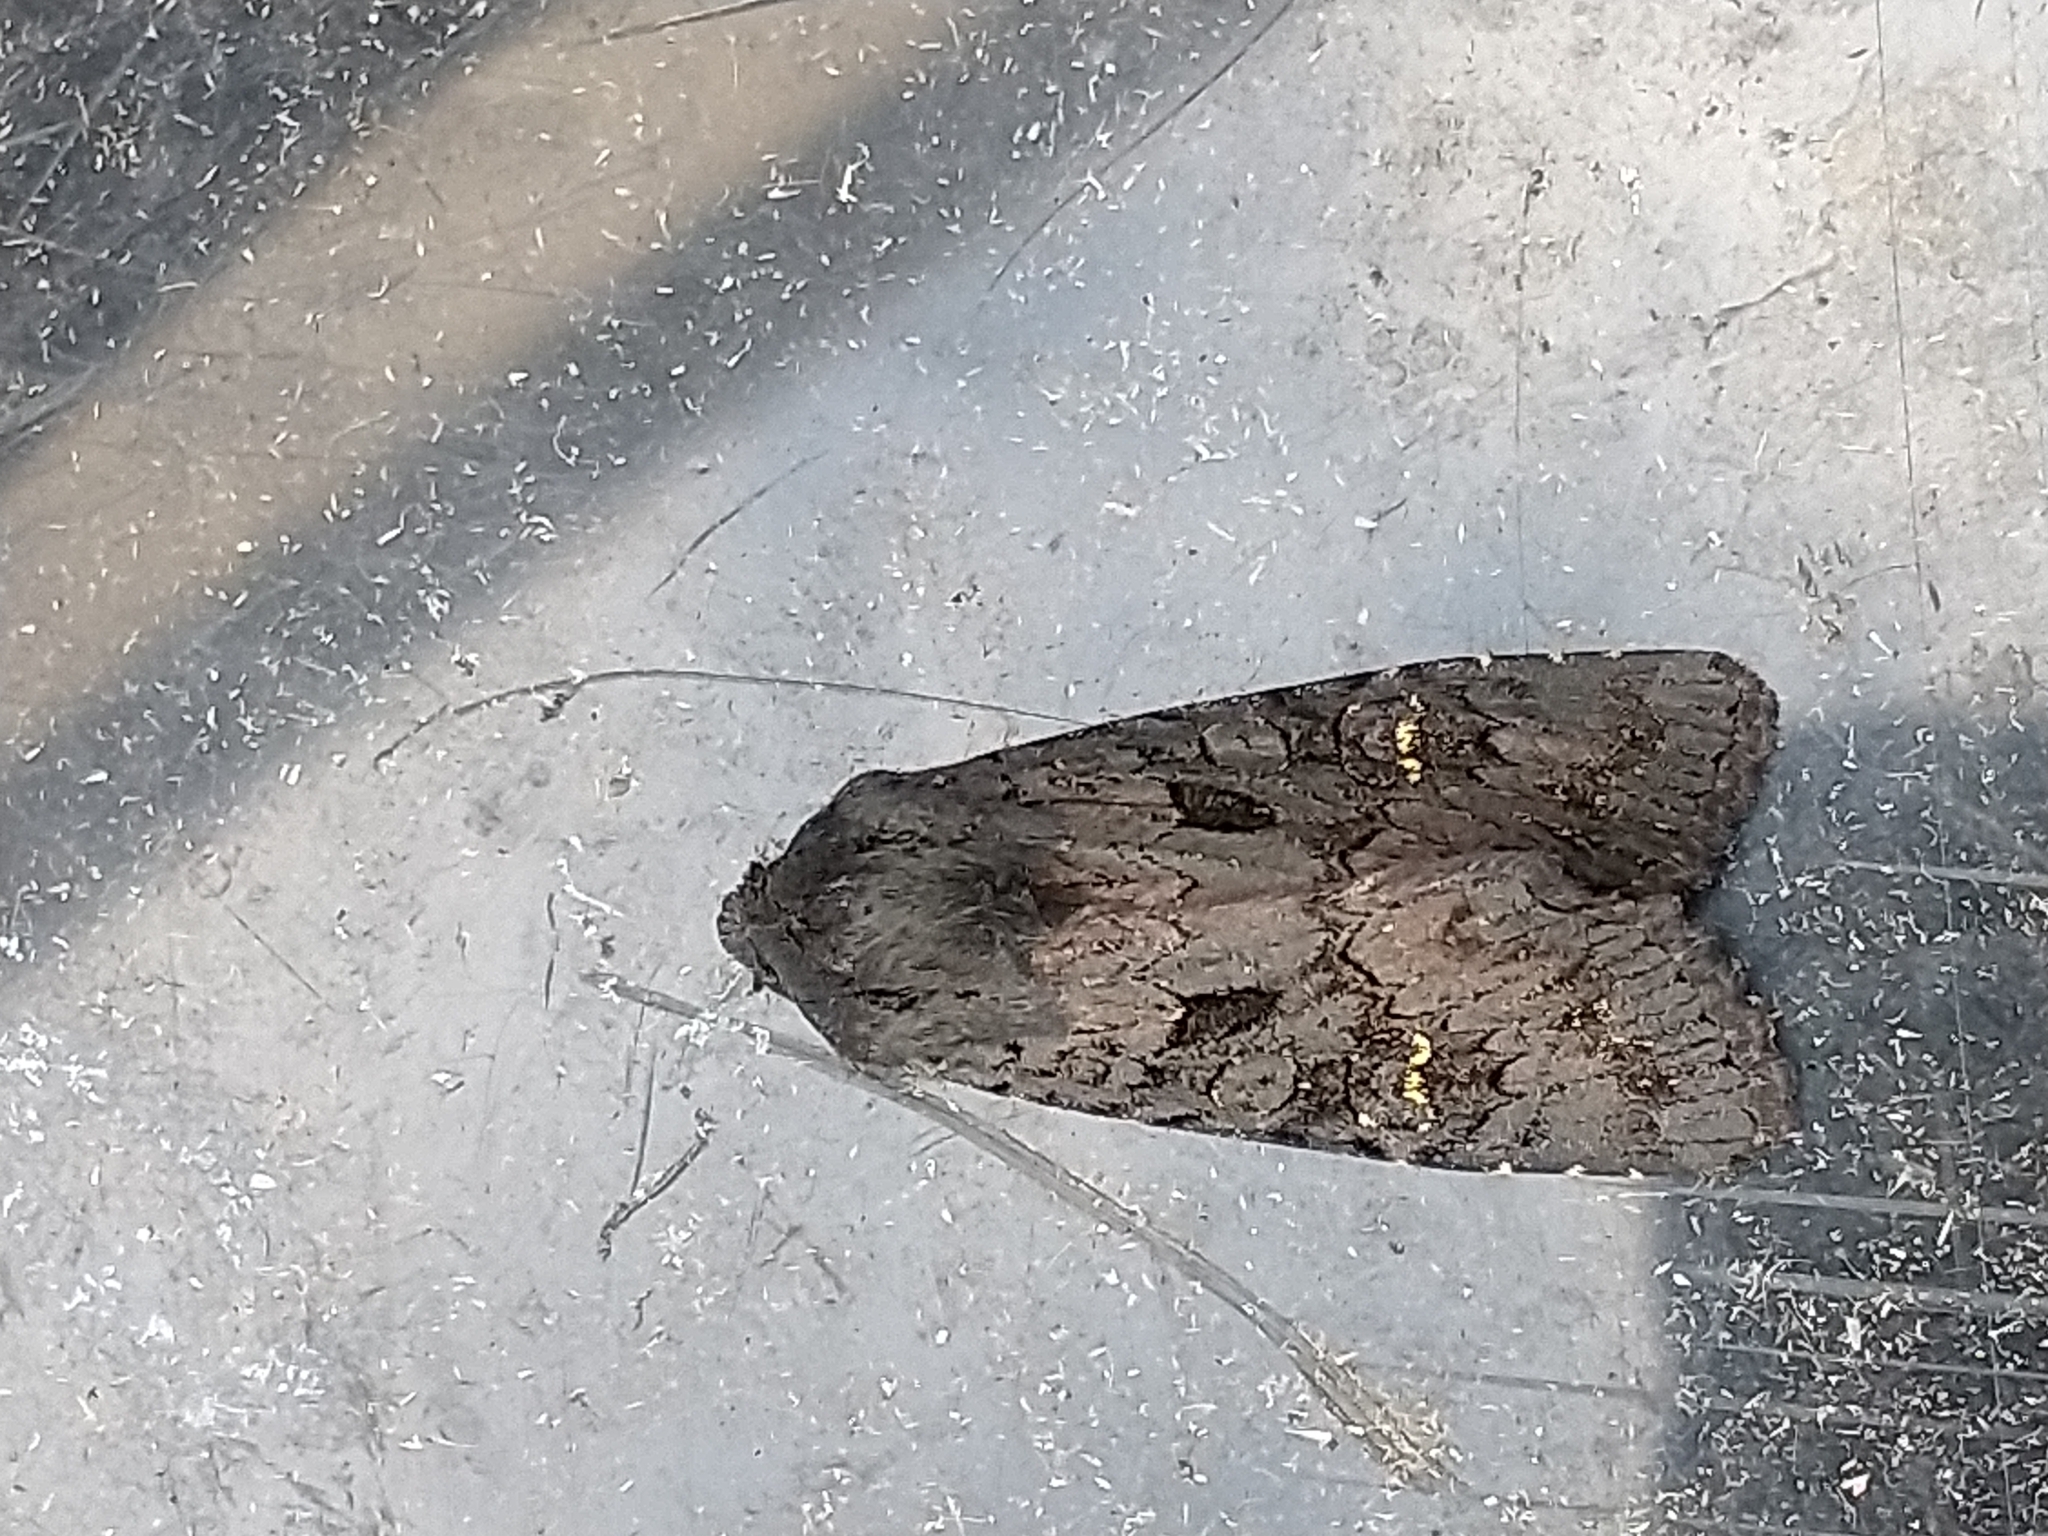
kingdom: Animalia
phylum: Arthropoda
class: Insecta
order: Lepidoptera
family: Noctuidae
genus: Aporophyla
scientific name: Aporophyla nigra
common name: Black rustic
